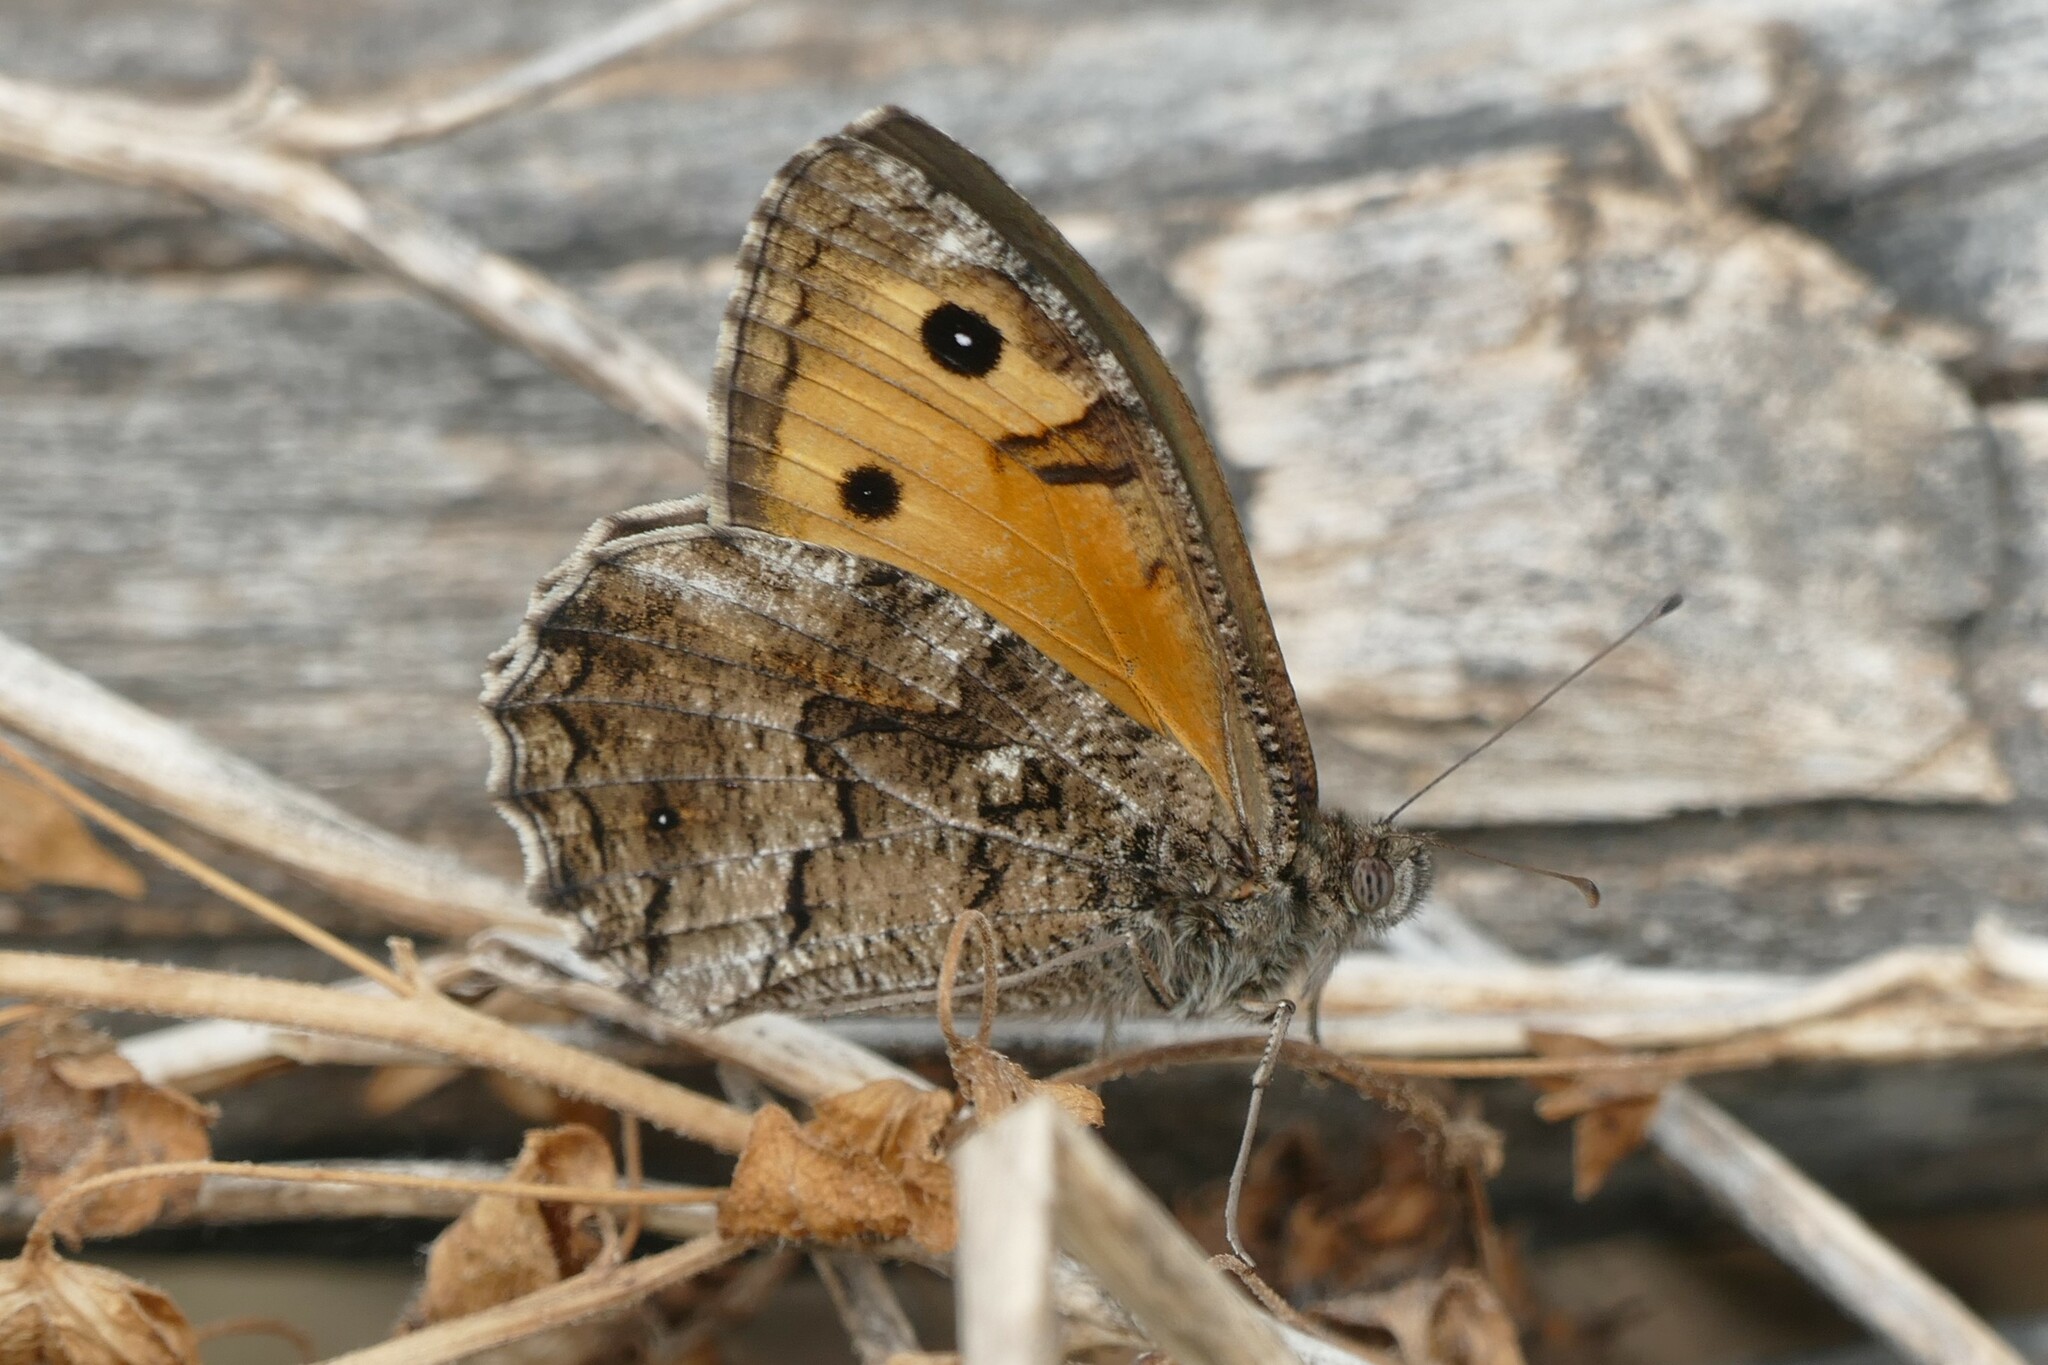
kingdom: Animalia
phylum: Arthropoda
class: Insecta
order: Lepidoptera
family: Nymphalidae
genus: Hipparchia
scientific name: Hipparchia semele
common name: Grayling
